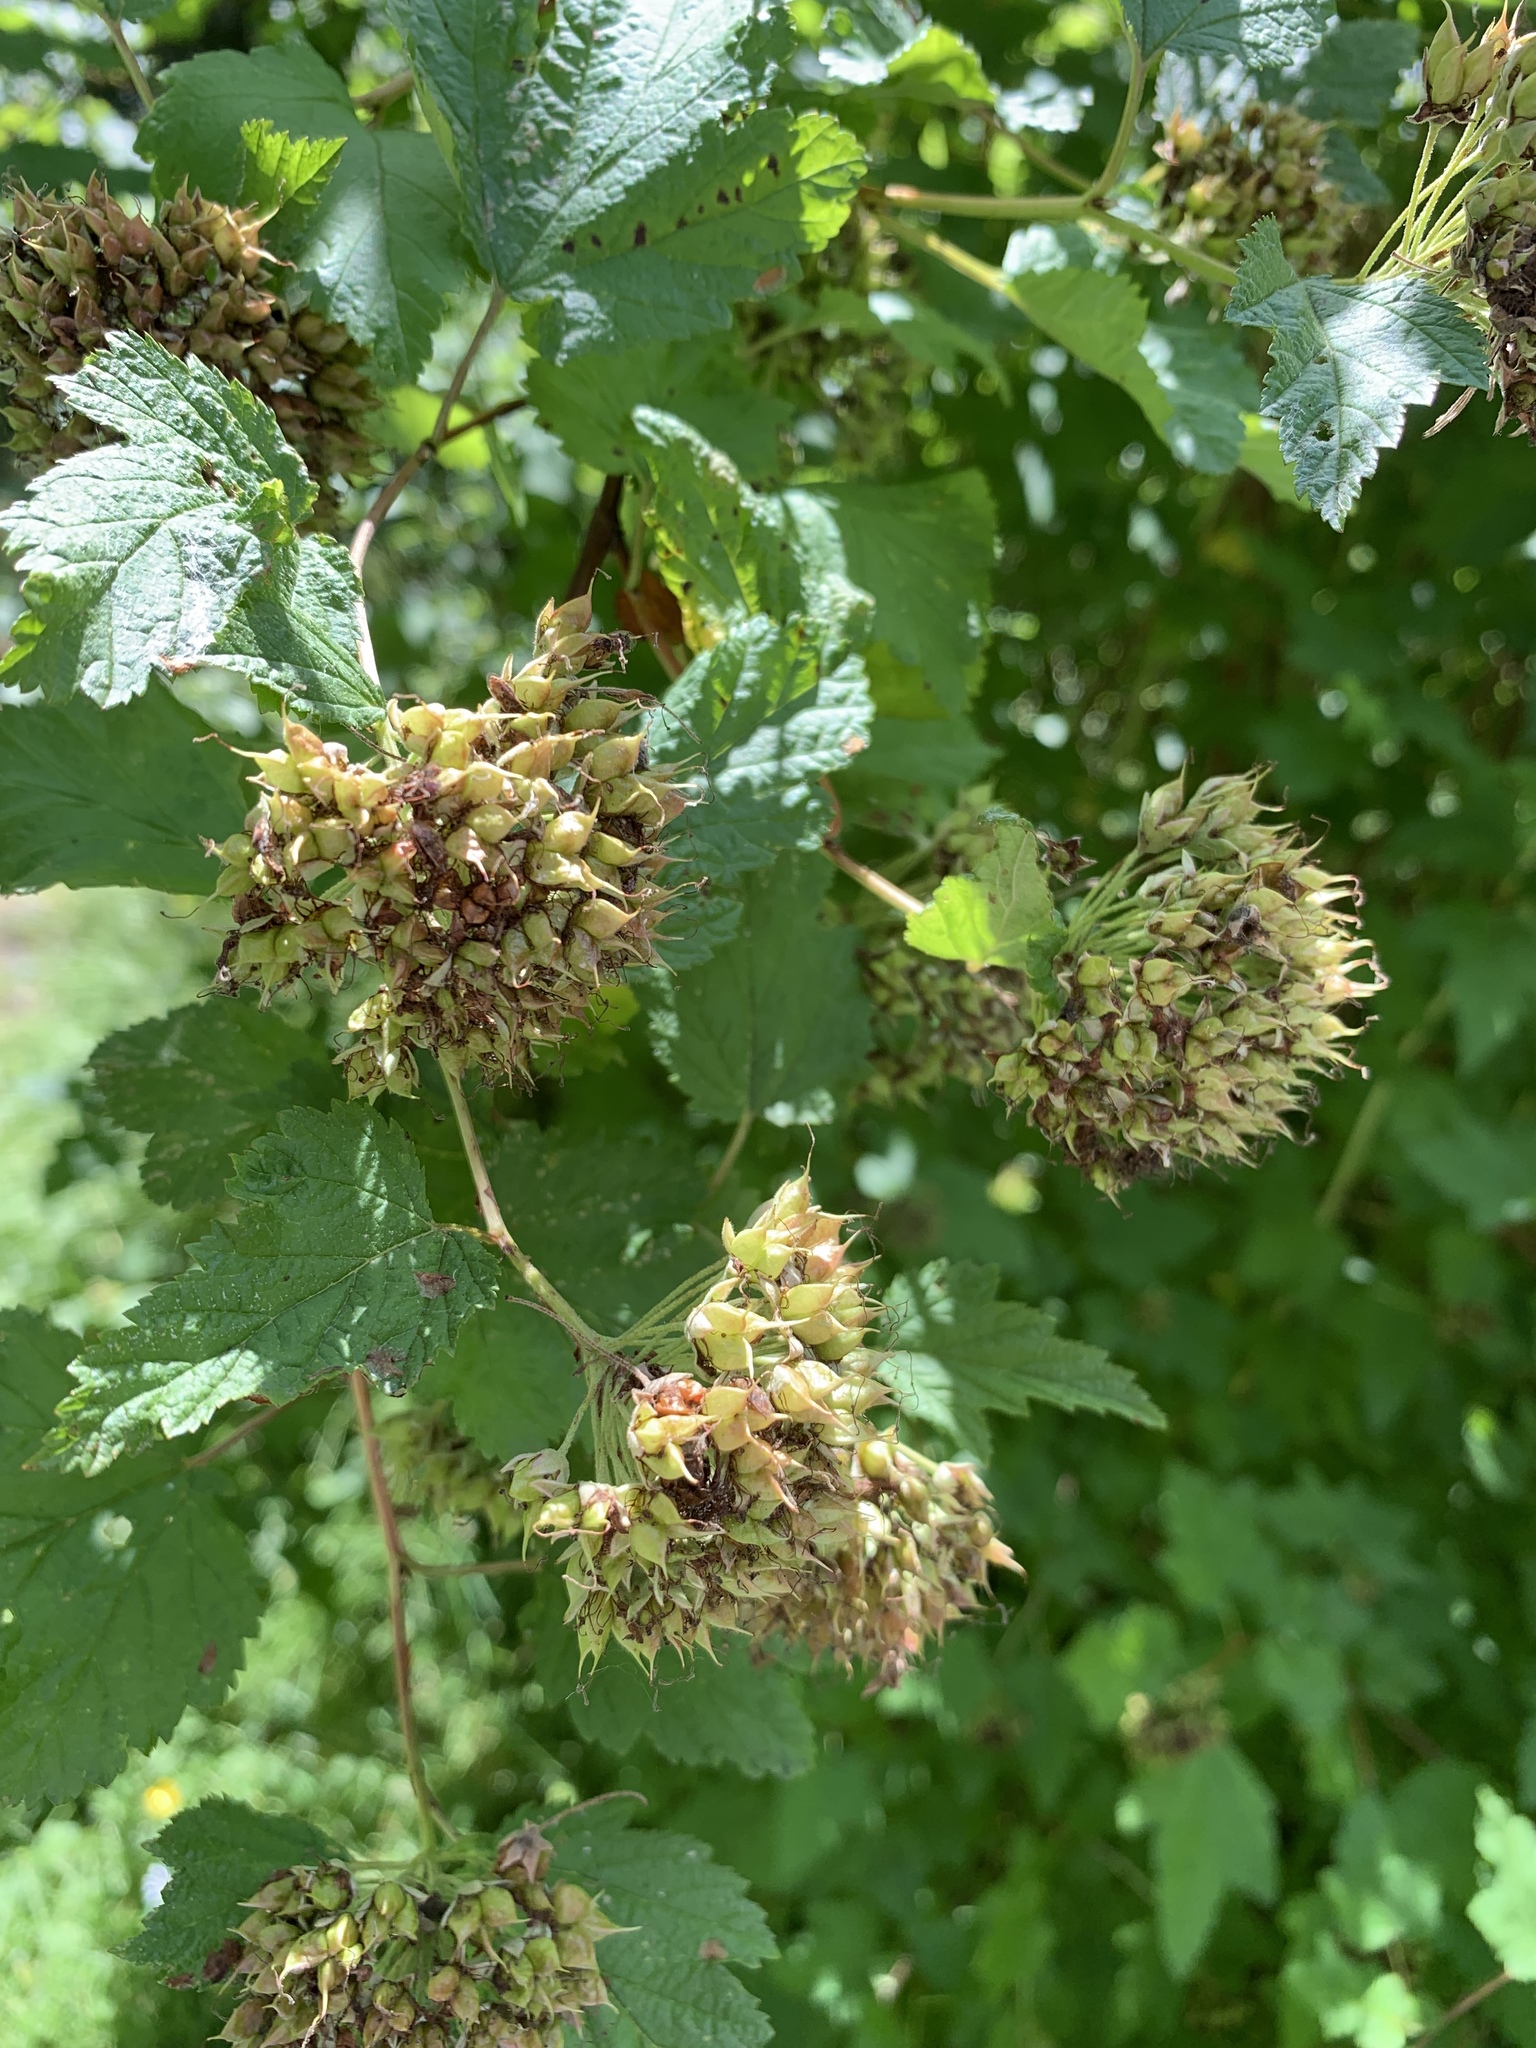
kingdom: Plantae
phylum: Tracheophyta
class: Magnoliopsida
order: Rosales
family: Rosaceae
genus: Physocarpus
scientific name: Physocarpus capitatus
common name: Pacific ninebark
